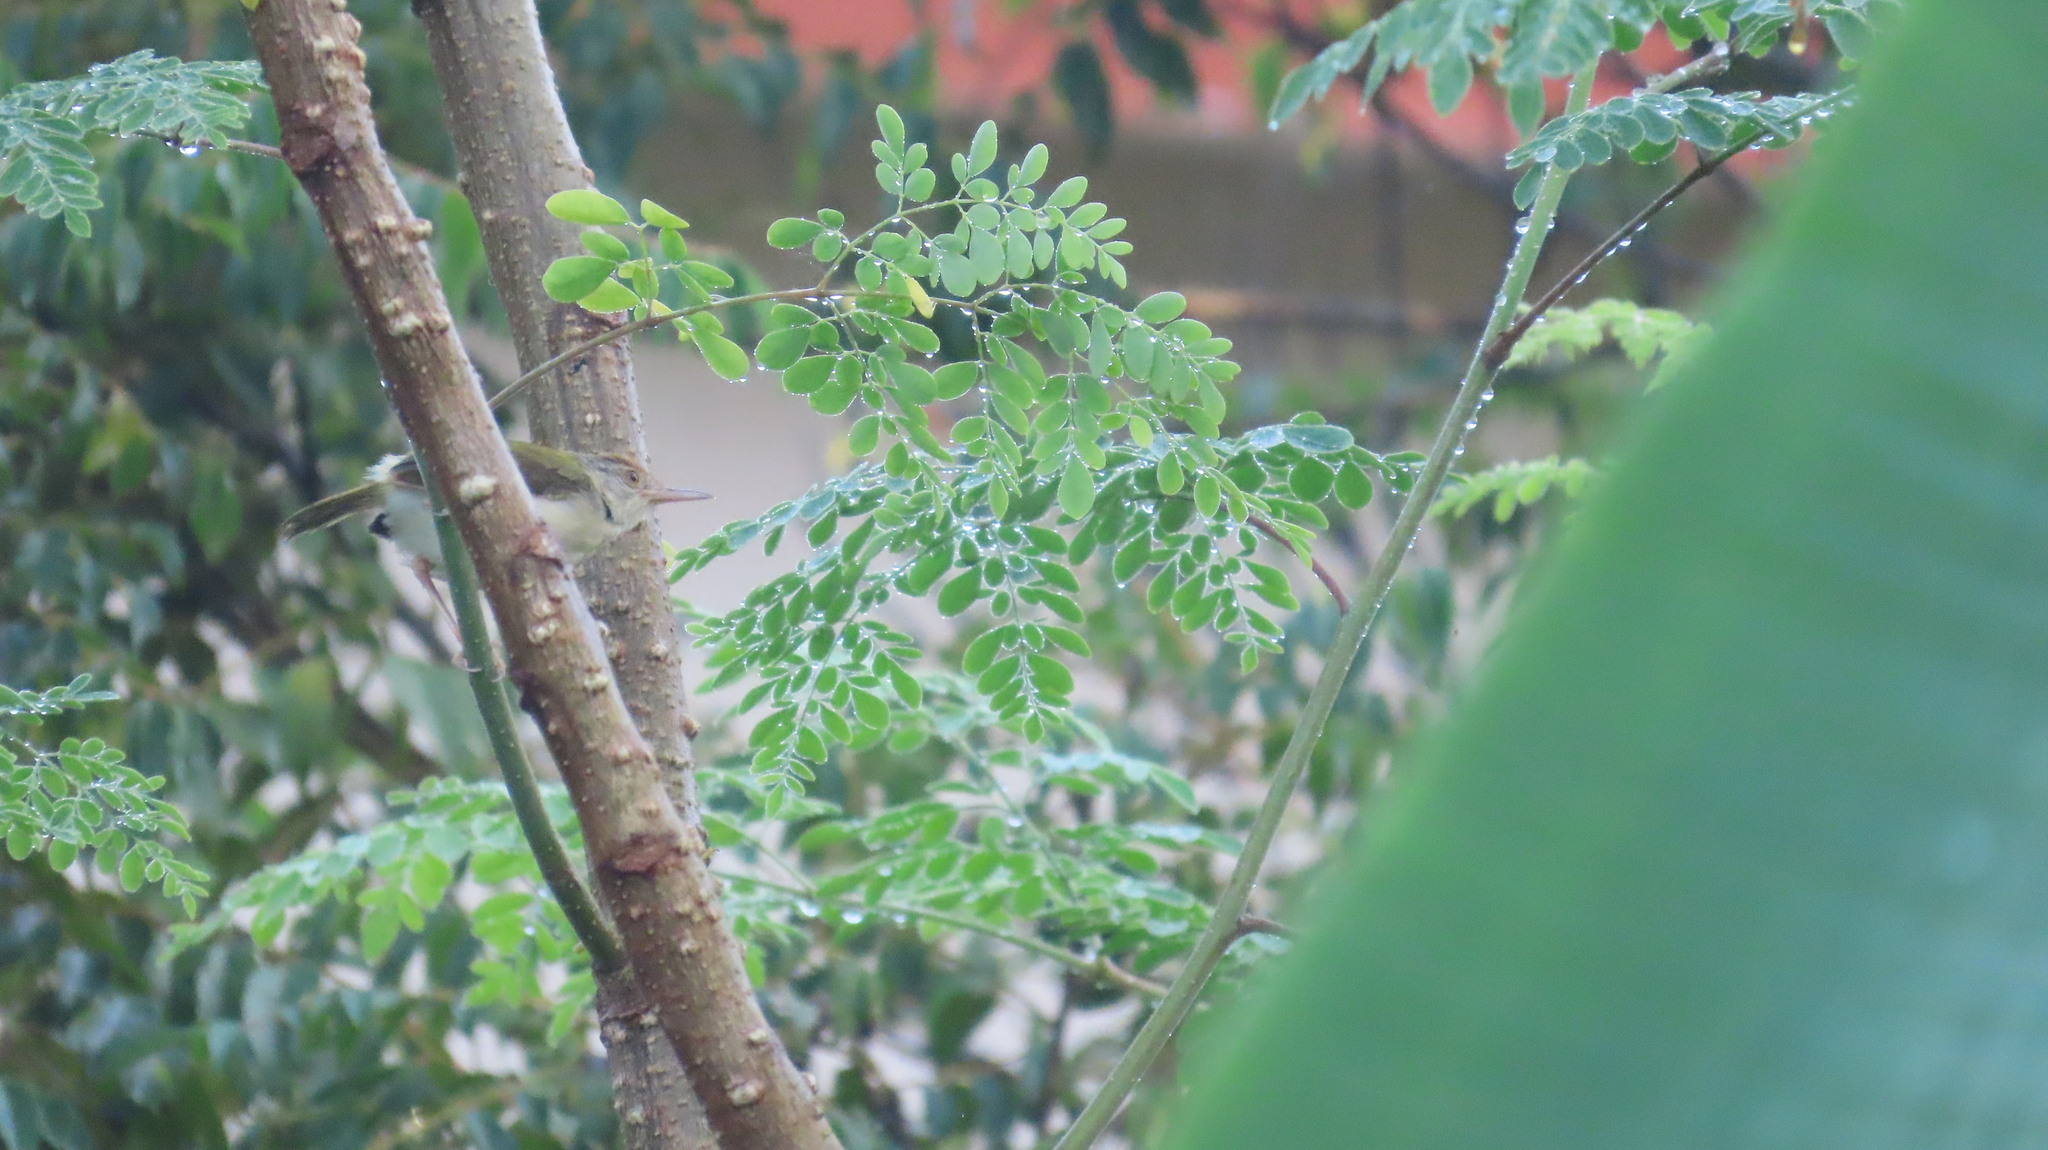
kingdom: Animalia
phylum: Chordata
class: Aves
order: Passeriformes
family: Cisticolidae
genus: Orthotomus
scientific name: Orthotomus sutorius
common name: Common tailorbird
